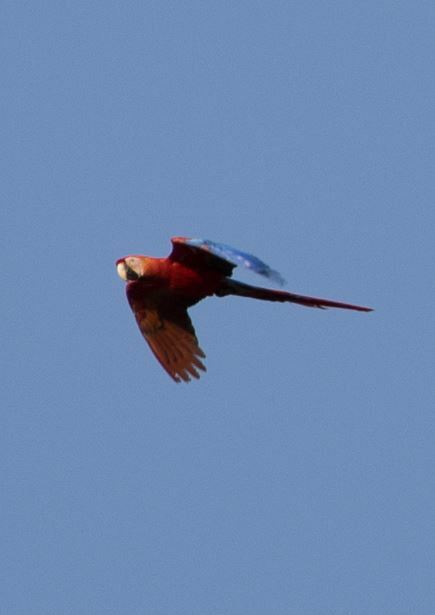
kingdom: Animalia
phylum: Chordata
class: Aves
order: Psittaciformes
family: Psittacidae
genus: Ara
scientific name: Ara macao
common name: Scarlet macaw
